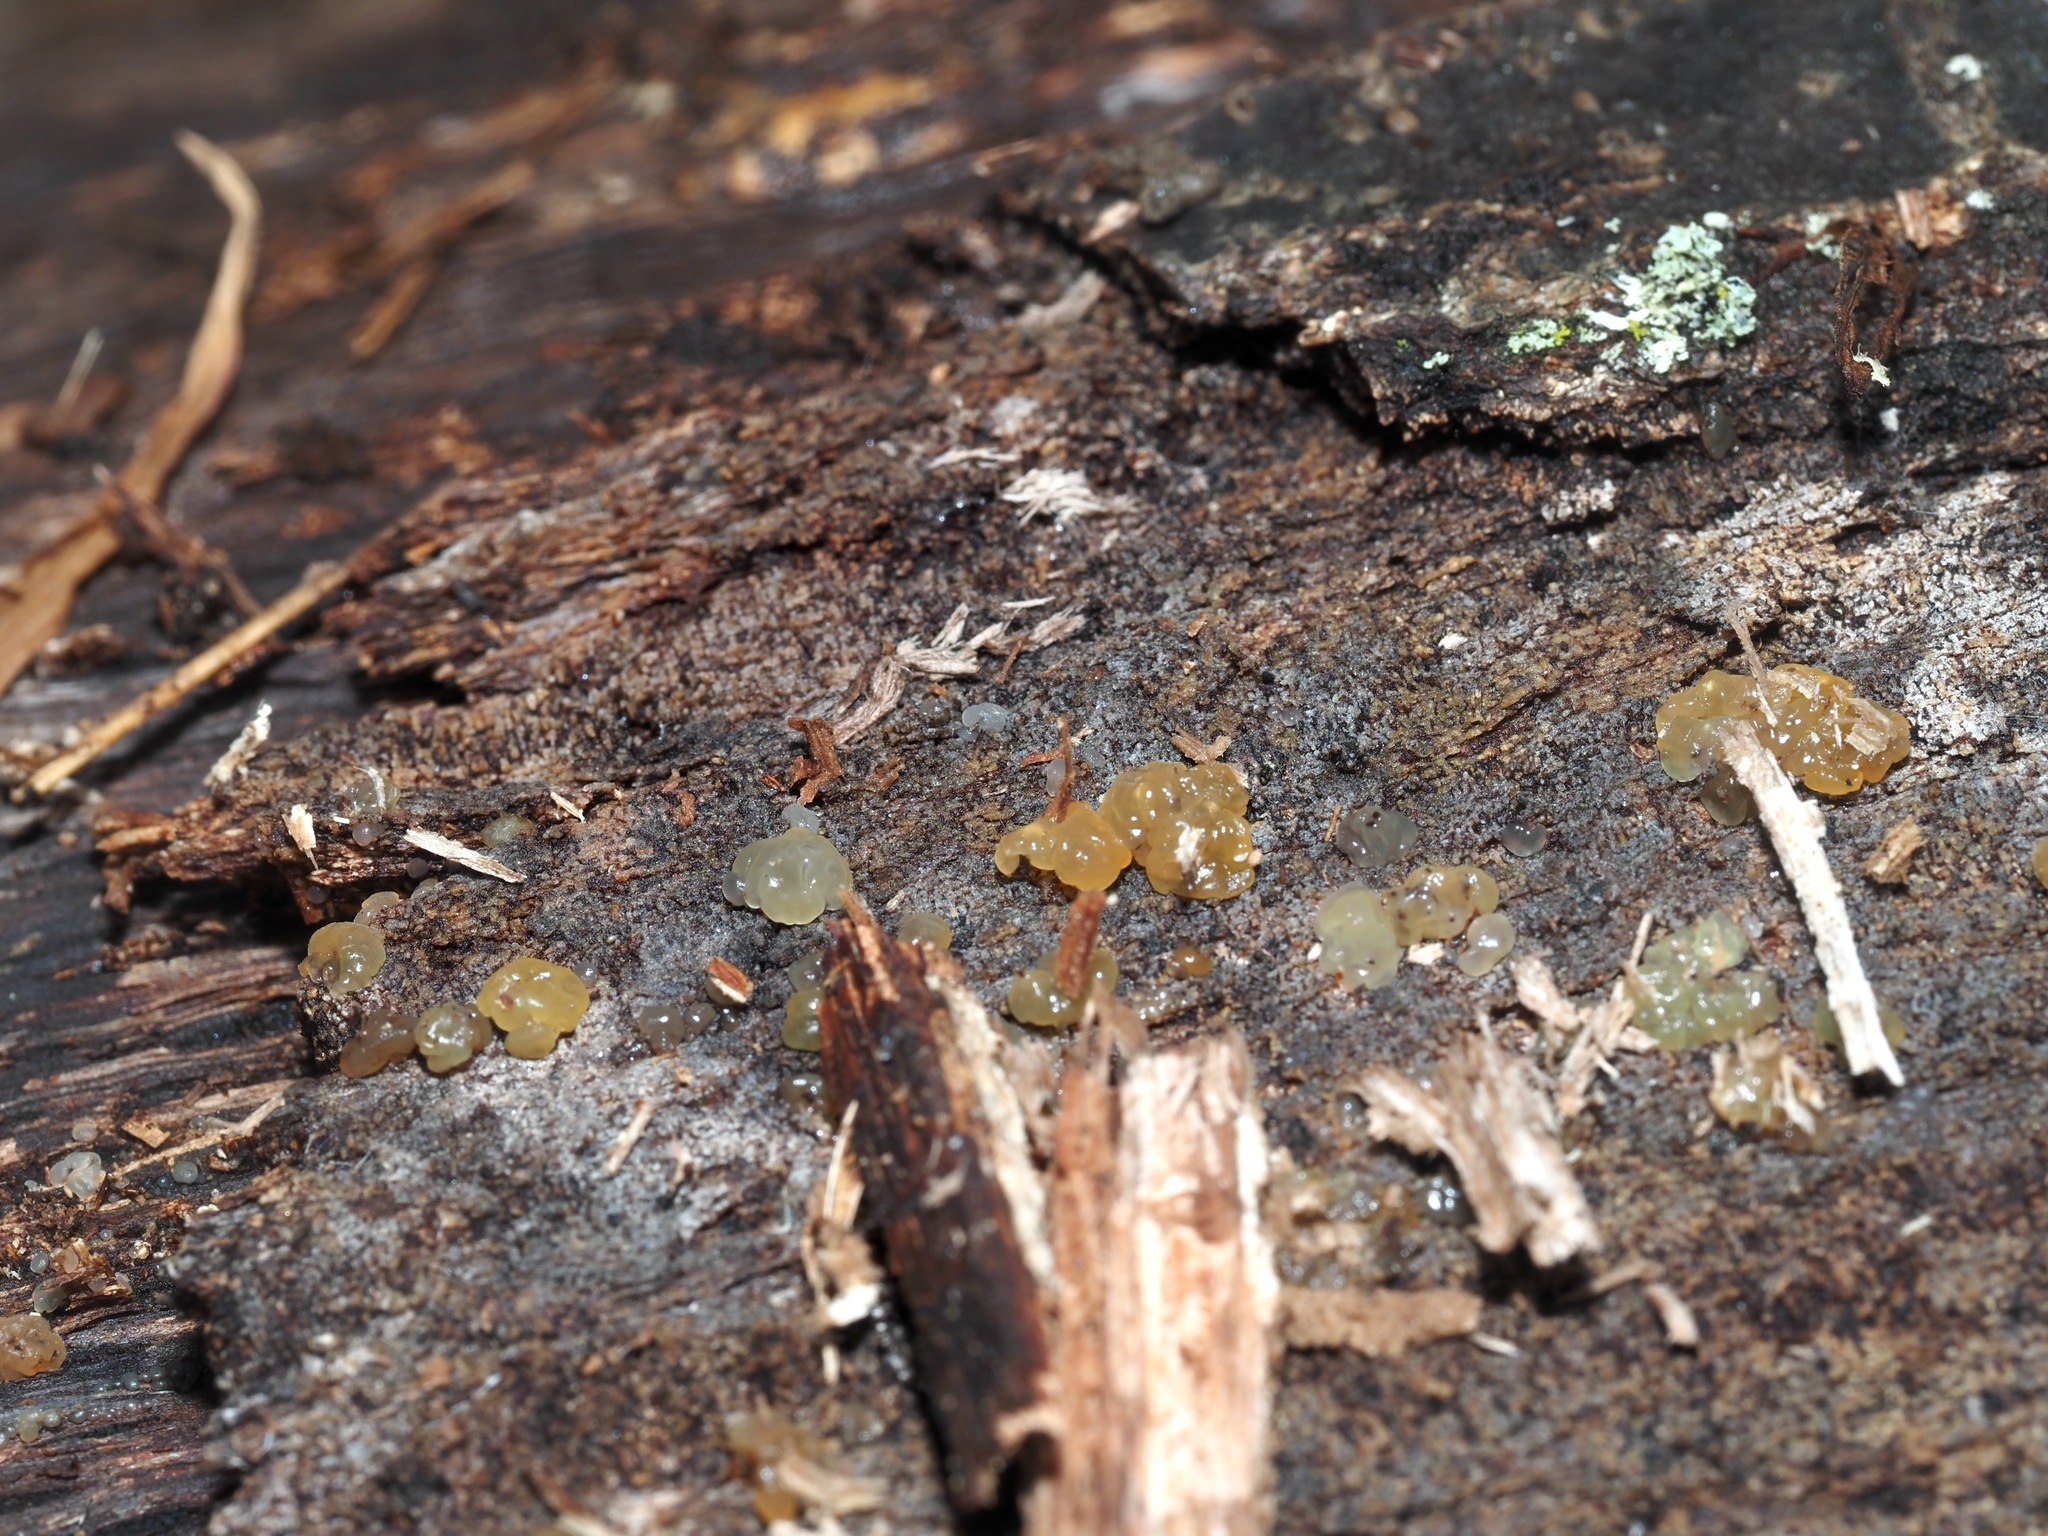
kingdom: Fungi
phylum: Basidiomycota
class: Agaricomycetes
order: Auriculariales
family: Hyaloriaceae
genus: Myxarium
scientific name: Myxarium nucleatum
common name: Crystal brain fungus
